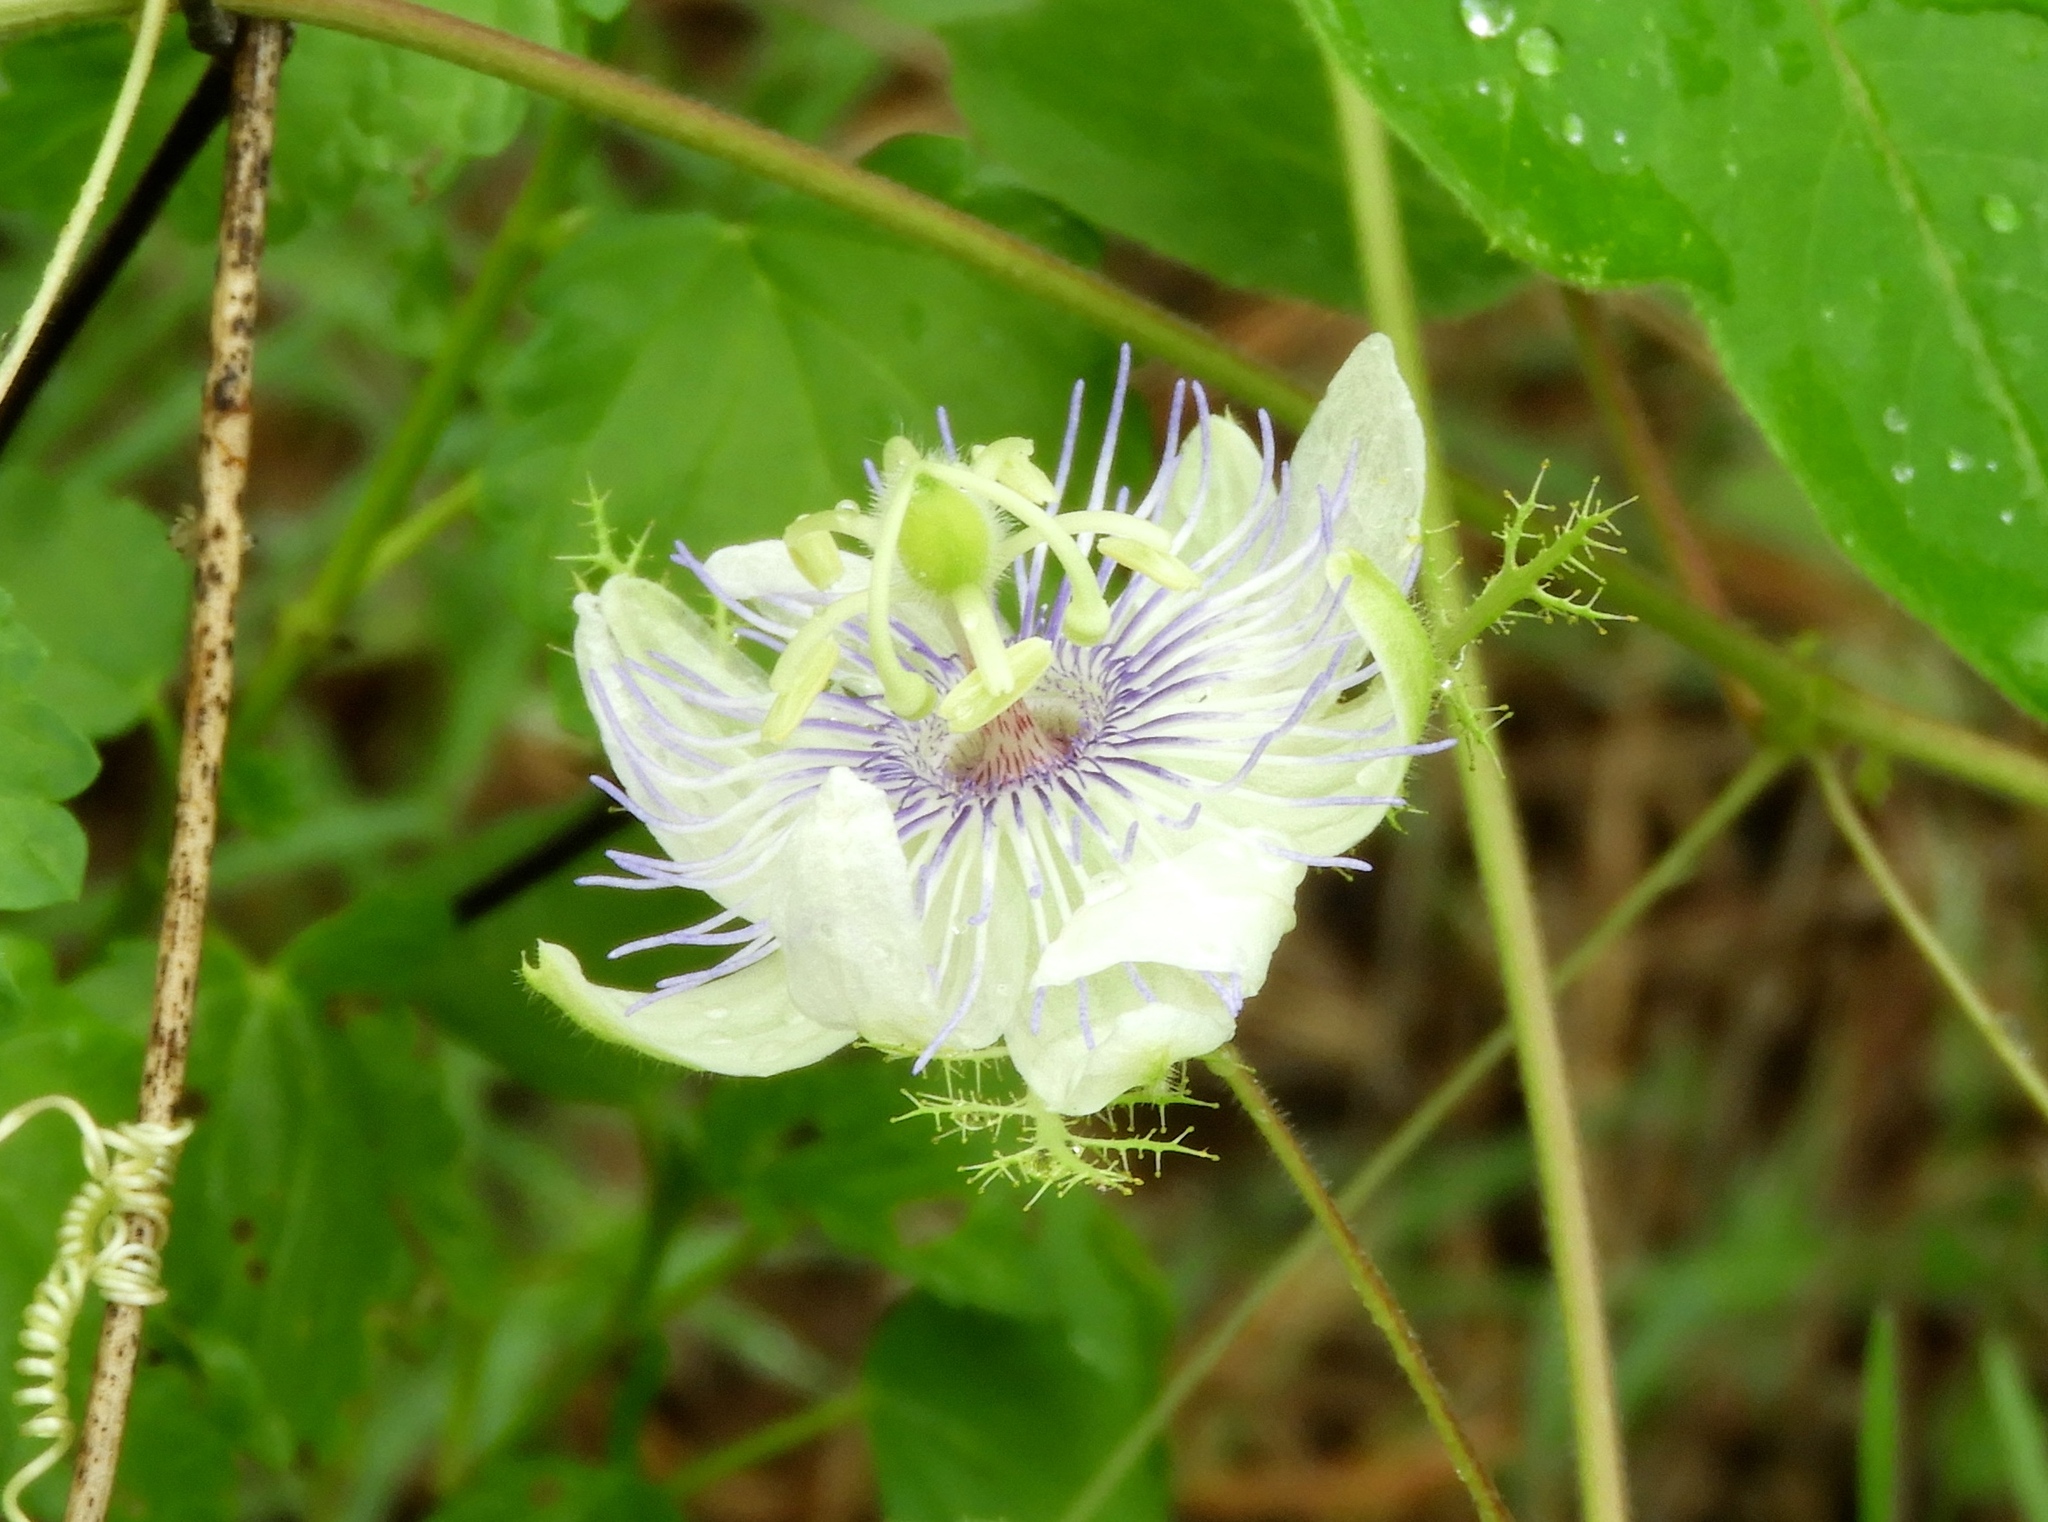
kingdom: Plantae
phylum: Tracheophyta
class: Magnoliopsida
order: Malpighiales
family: Passifloraceae
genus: Passiflora
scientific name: Passiflora foetida
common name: Fetid passionflower
